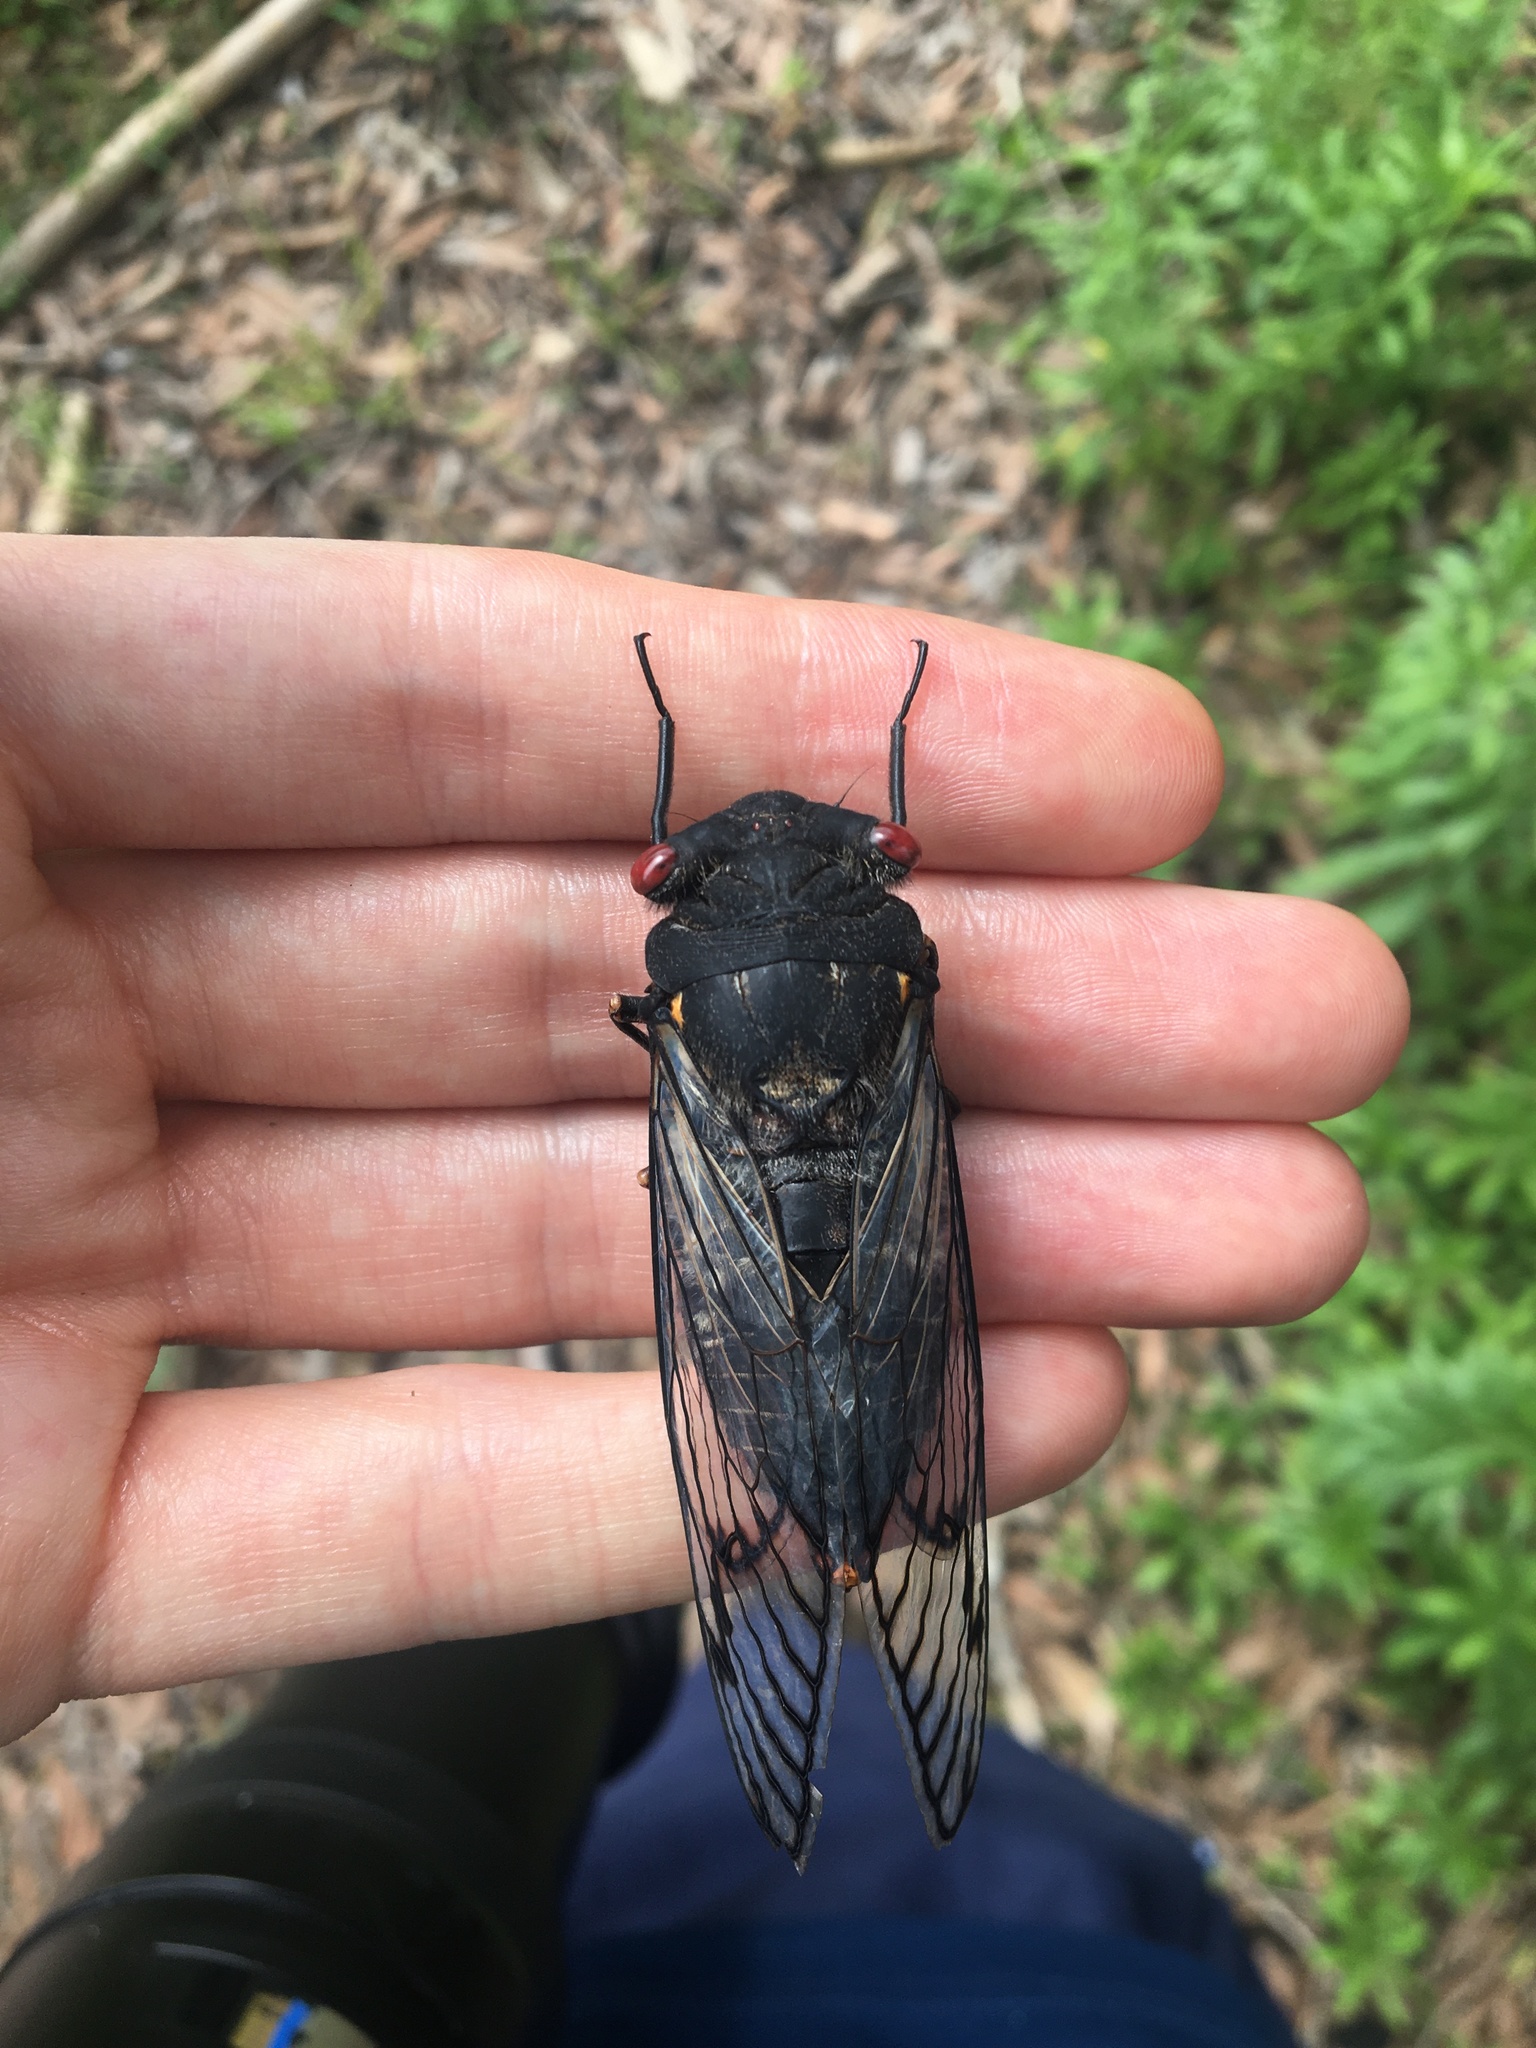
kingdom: Animalia
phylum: Arthropoda
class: Insecta
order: Hemiptera
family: Cicadidae
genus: Psaltoda
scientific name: Psaltoda moerens
